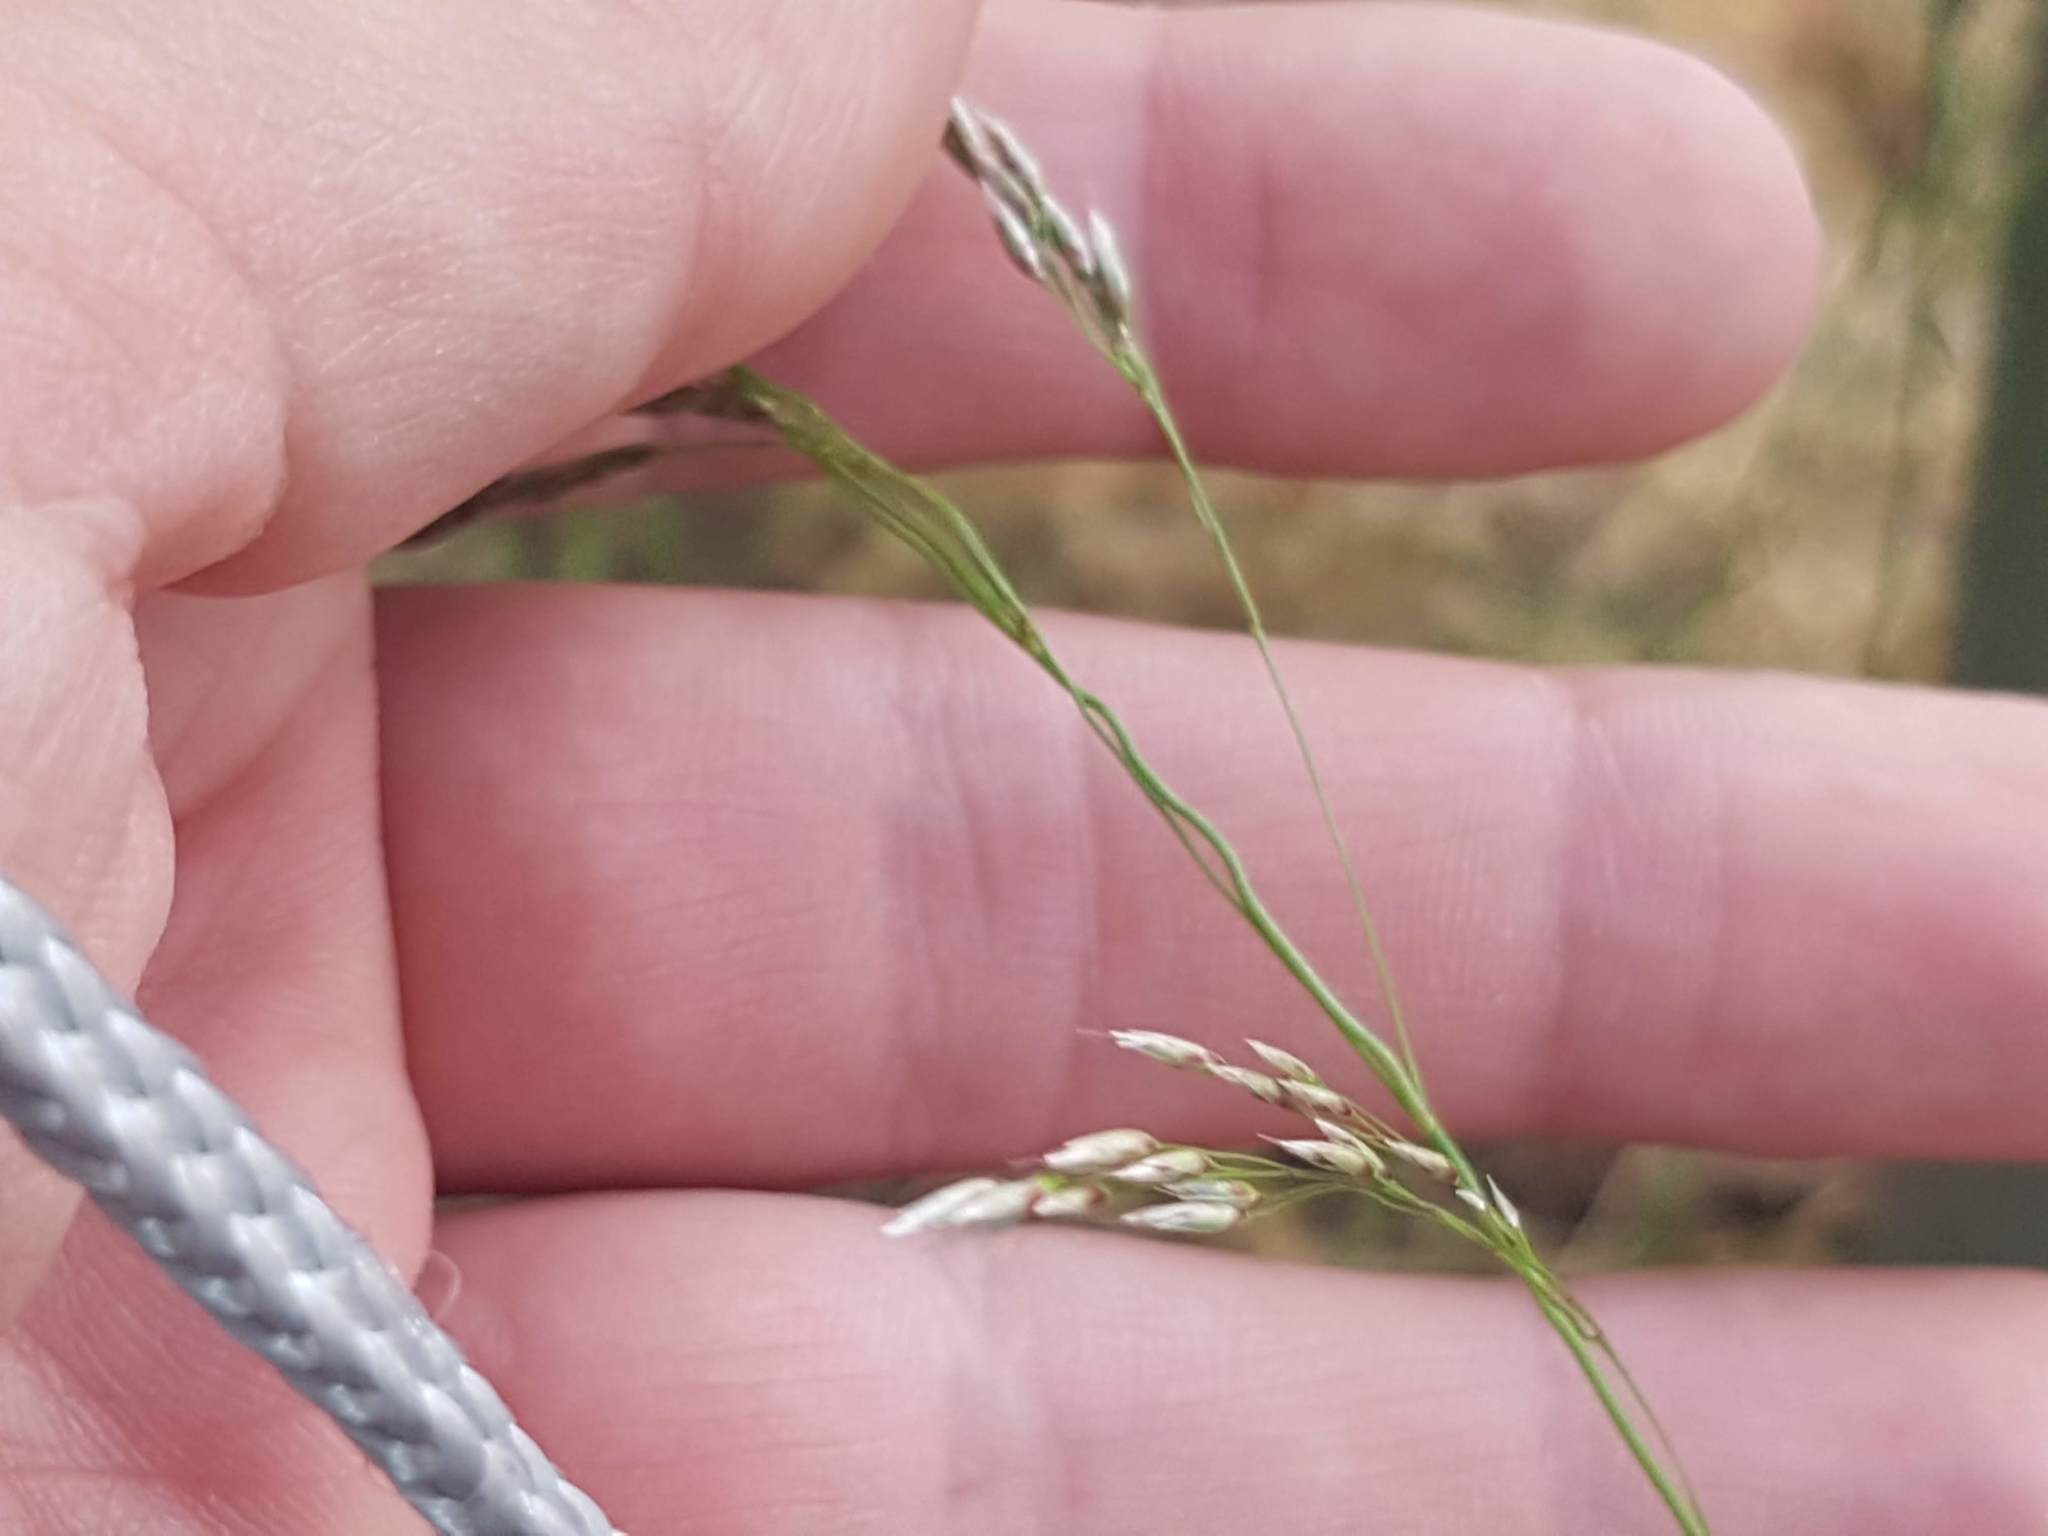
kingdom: Plantae
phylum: Tracheophyta
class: Liliopsida
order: Poales
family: Poaceae
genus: Avenella
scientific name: Avenella flexuosa
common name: Wavy hairgrass
